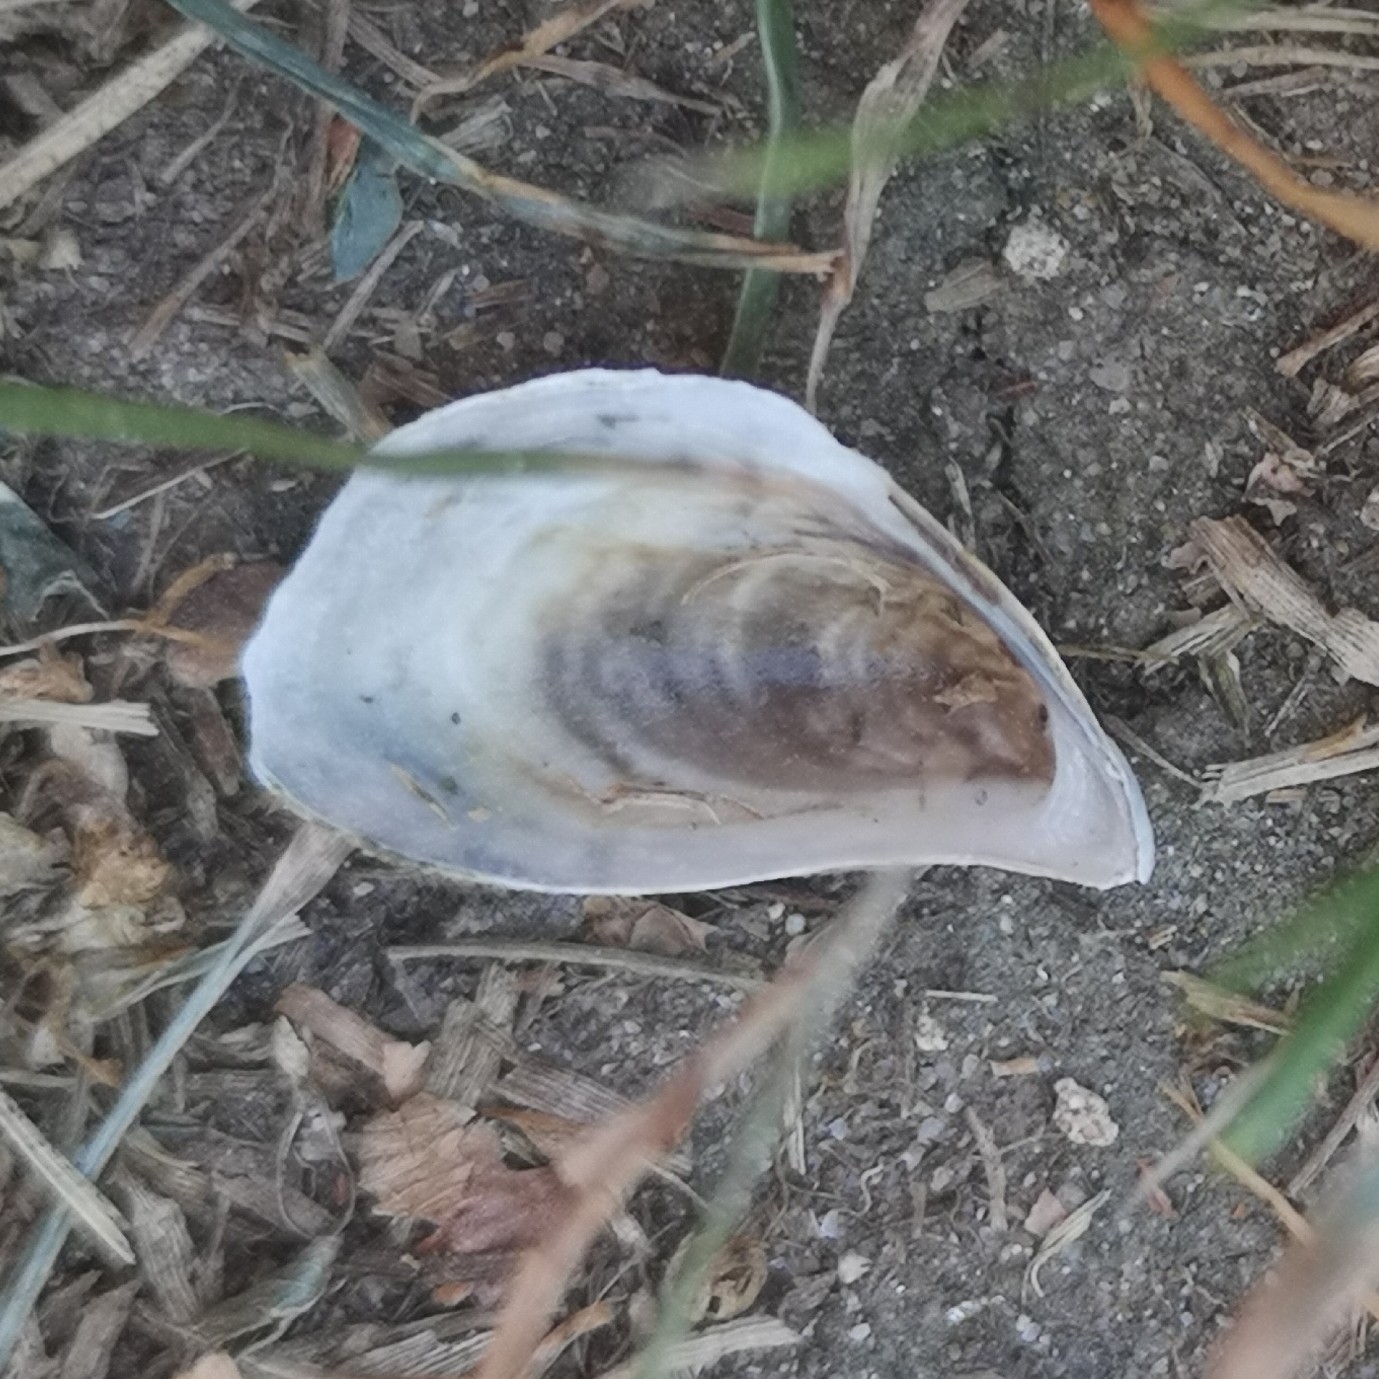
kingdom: Animalia
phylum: Mollusca
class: Bivalvia
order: Myida
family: Dreissenidae
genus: Dreissena
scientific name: Dreissena bugensis
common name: Quagga mussel
